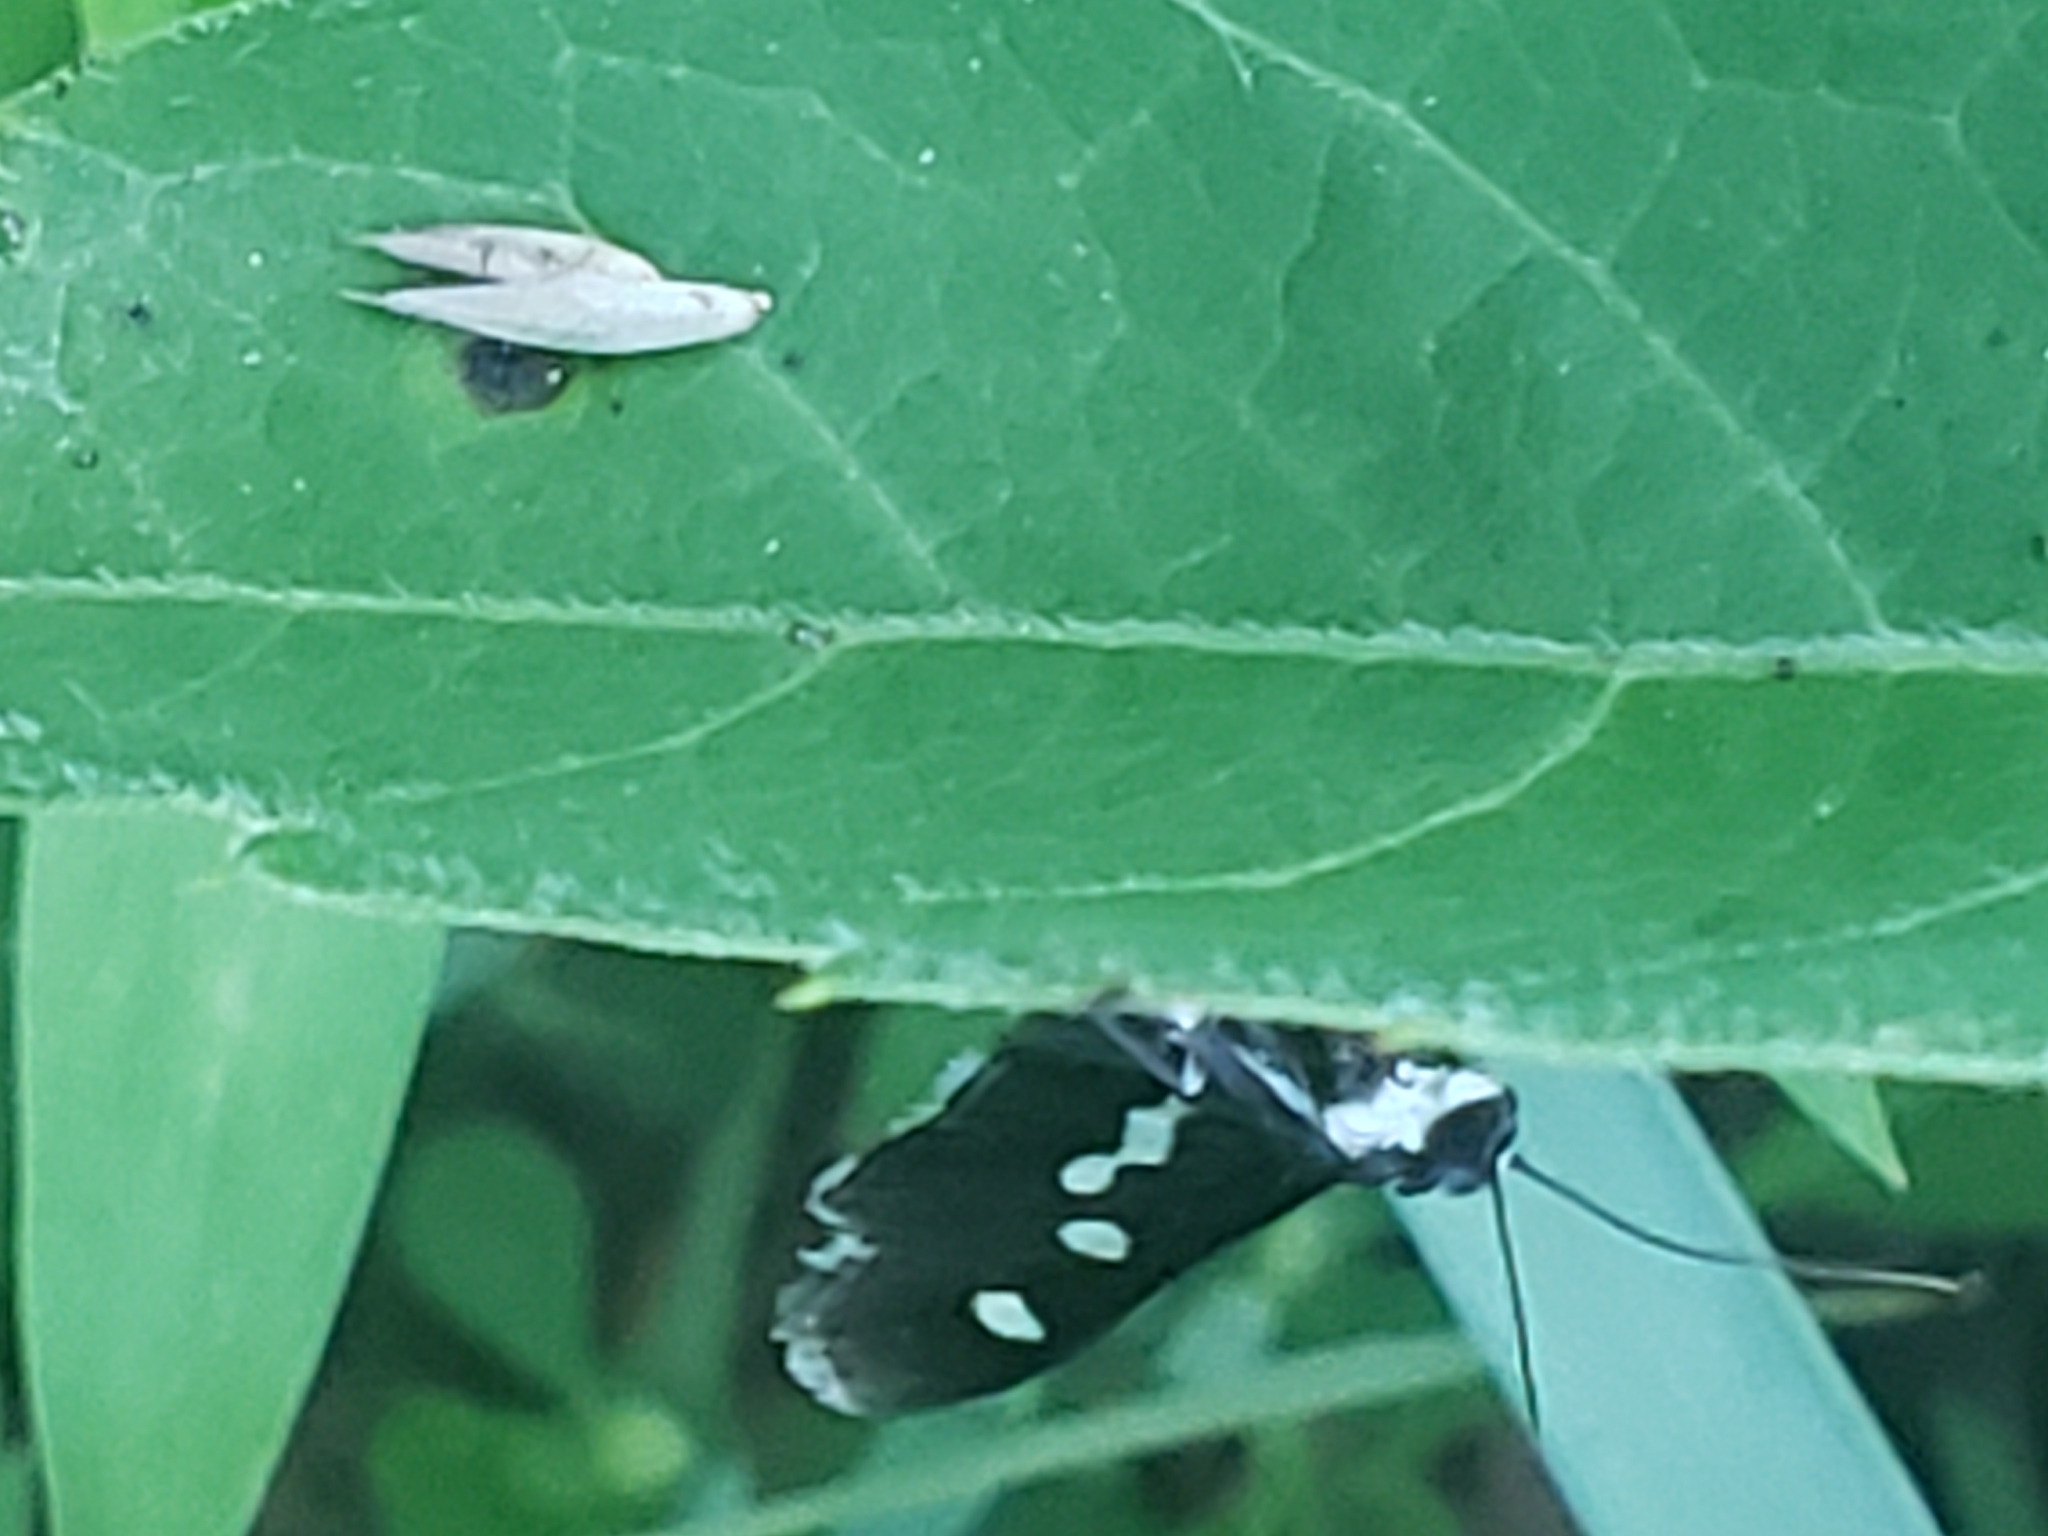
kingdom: Animalia
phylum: Arthropoda
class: Insecta
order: Lepidoptera
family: Crambidae
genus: Desmia
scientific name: Desmia funeralis
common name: Grape leaf folder moth
